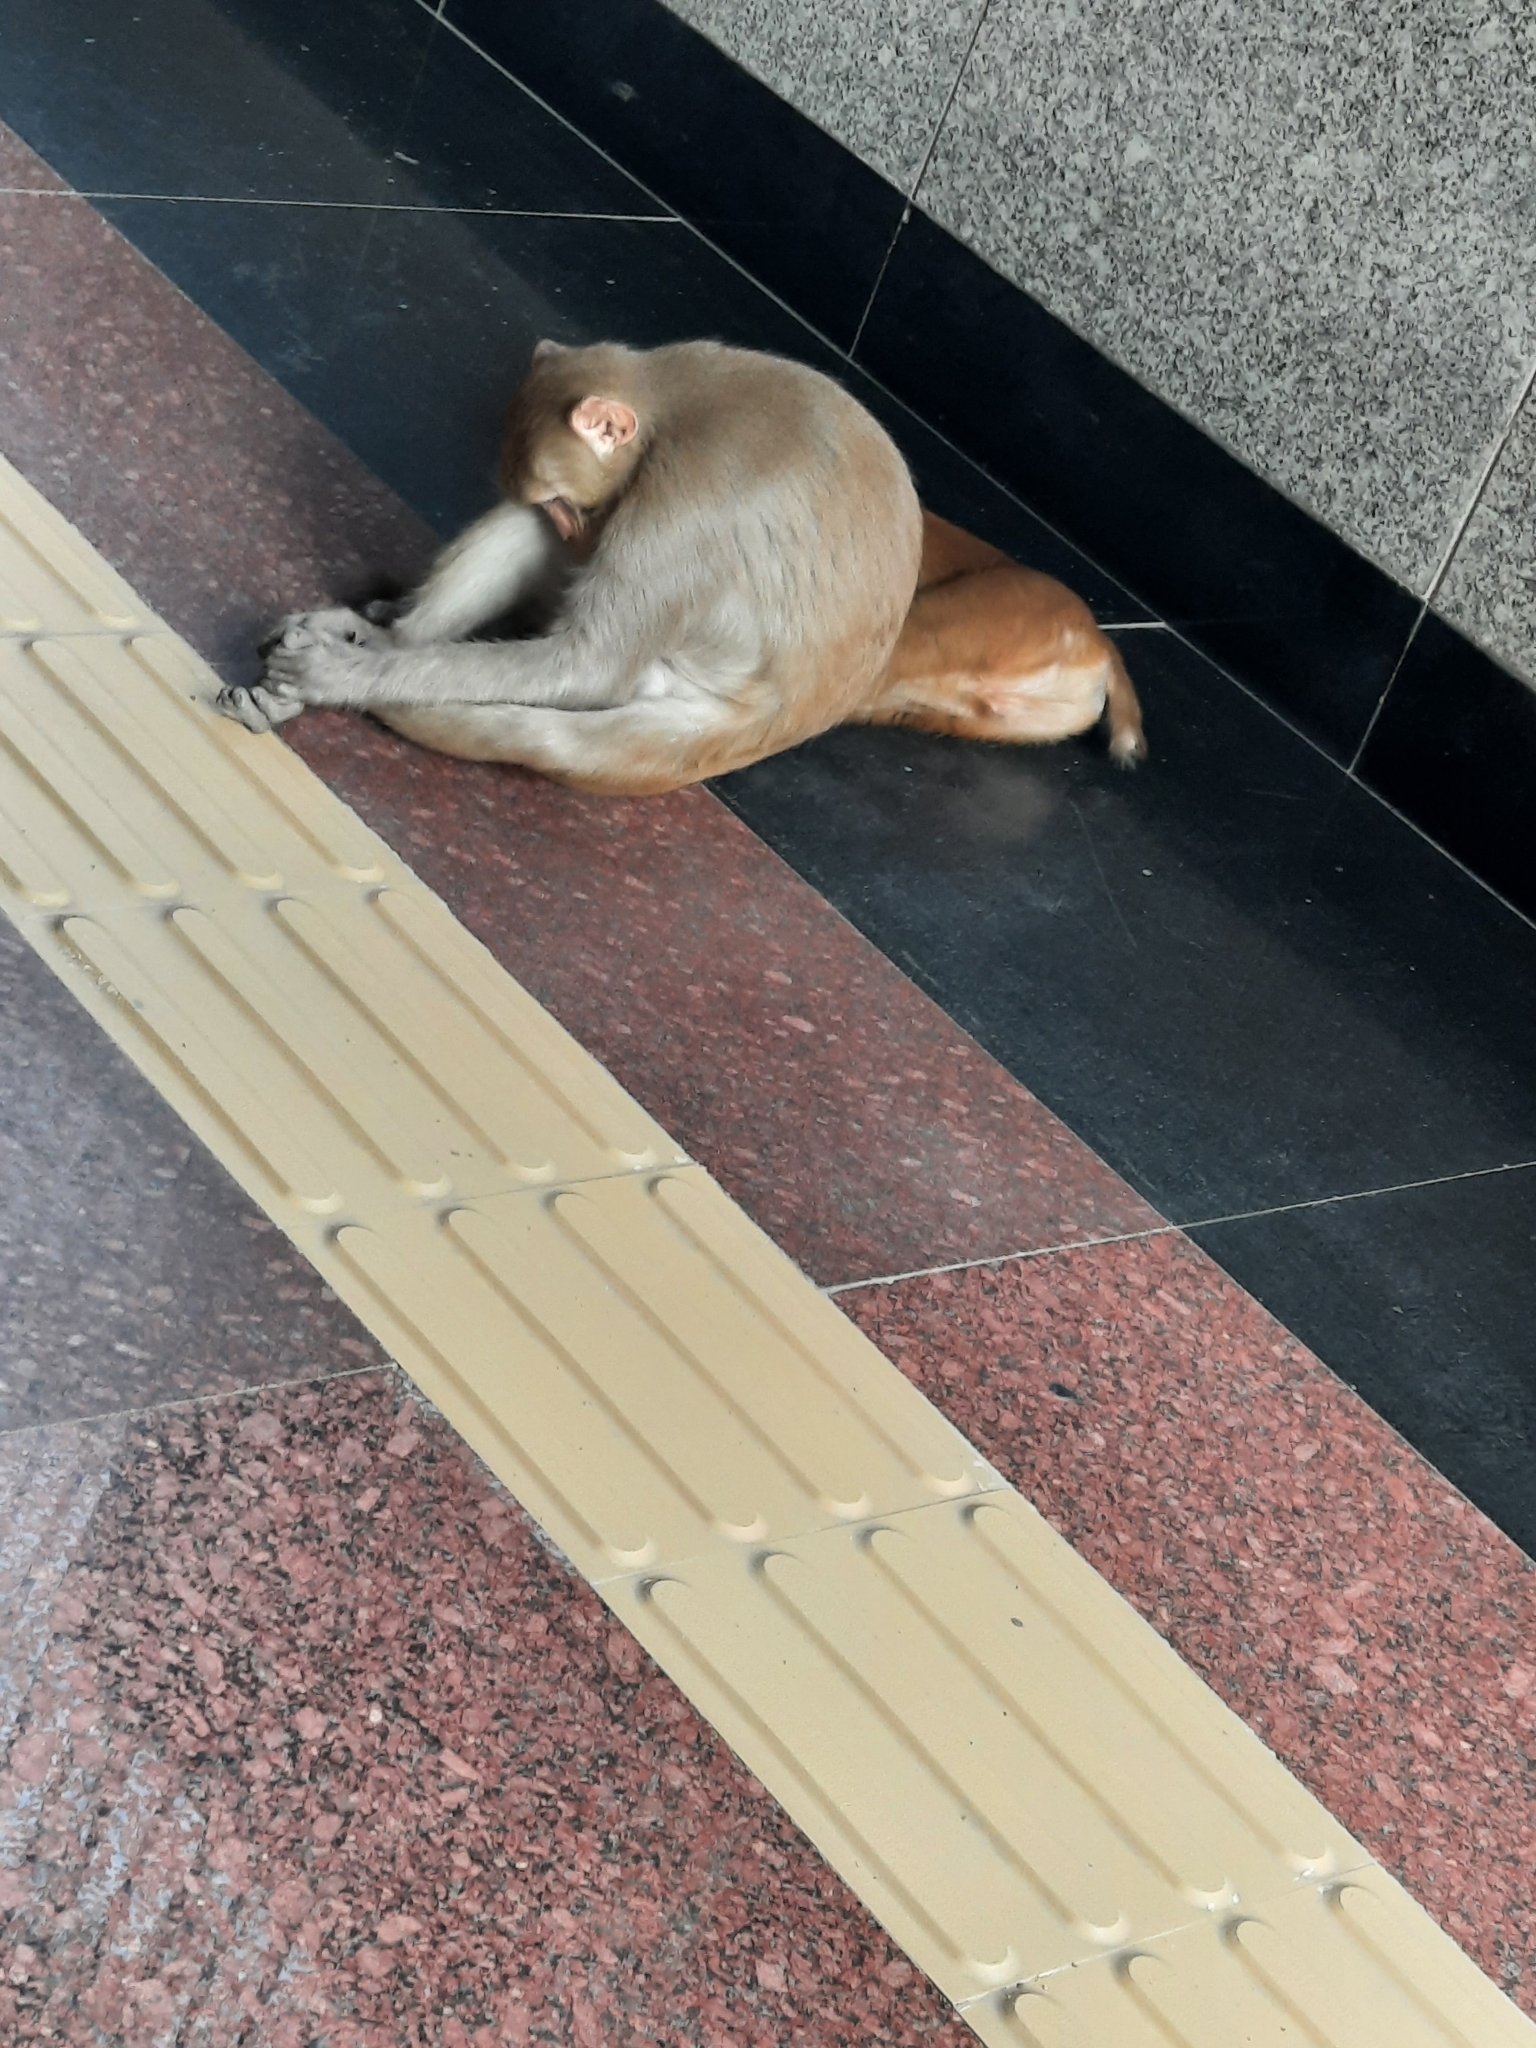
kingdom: Animalia
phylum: Chordata
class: Mammalia
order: Primates
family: Cercopithecidae
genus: Macaca
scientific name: Macaca mulatta
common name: Rhesus monkey
